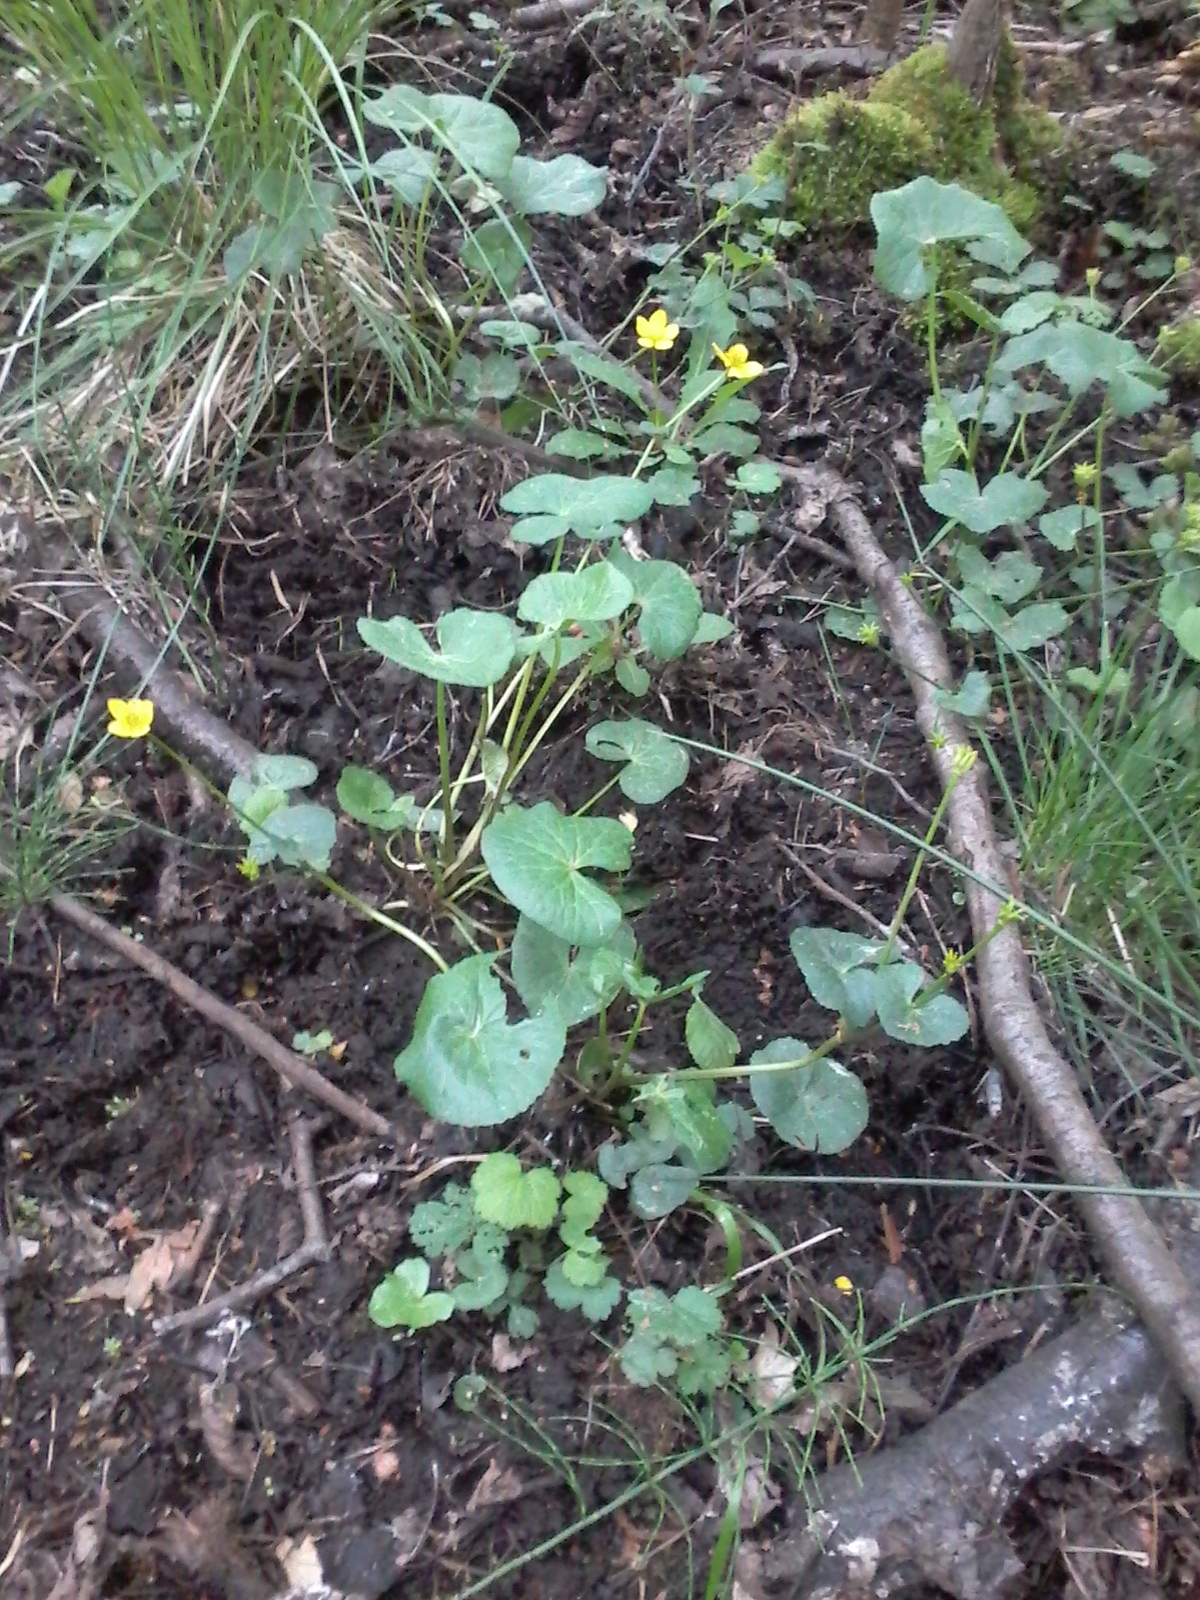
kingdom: Plantae
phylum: Tracheophyta
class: Magnoliopsida
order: Ranunculales
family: Ranunculaceae
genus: Caltha
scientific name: Caltha palustris
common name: Marsh marigold
